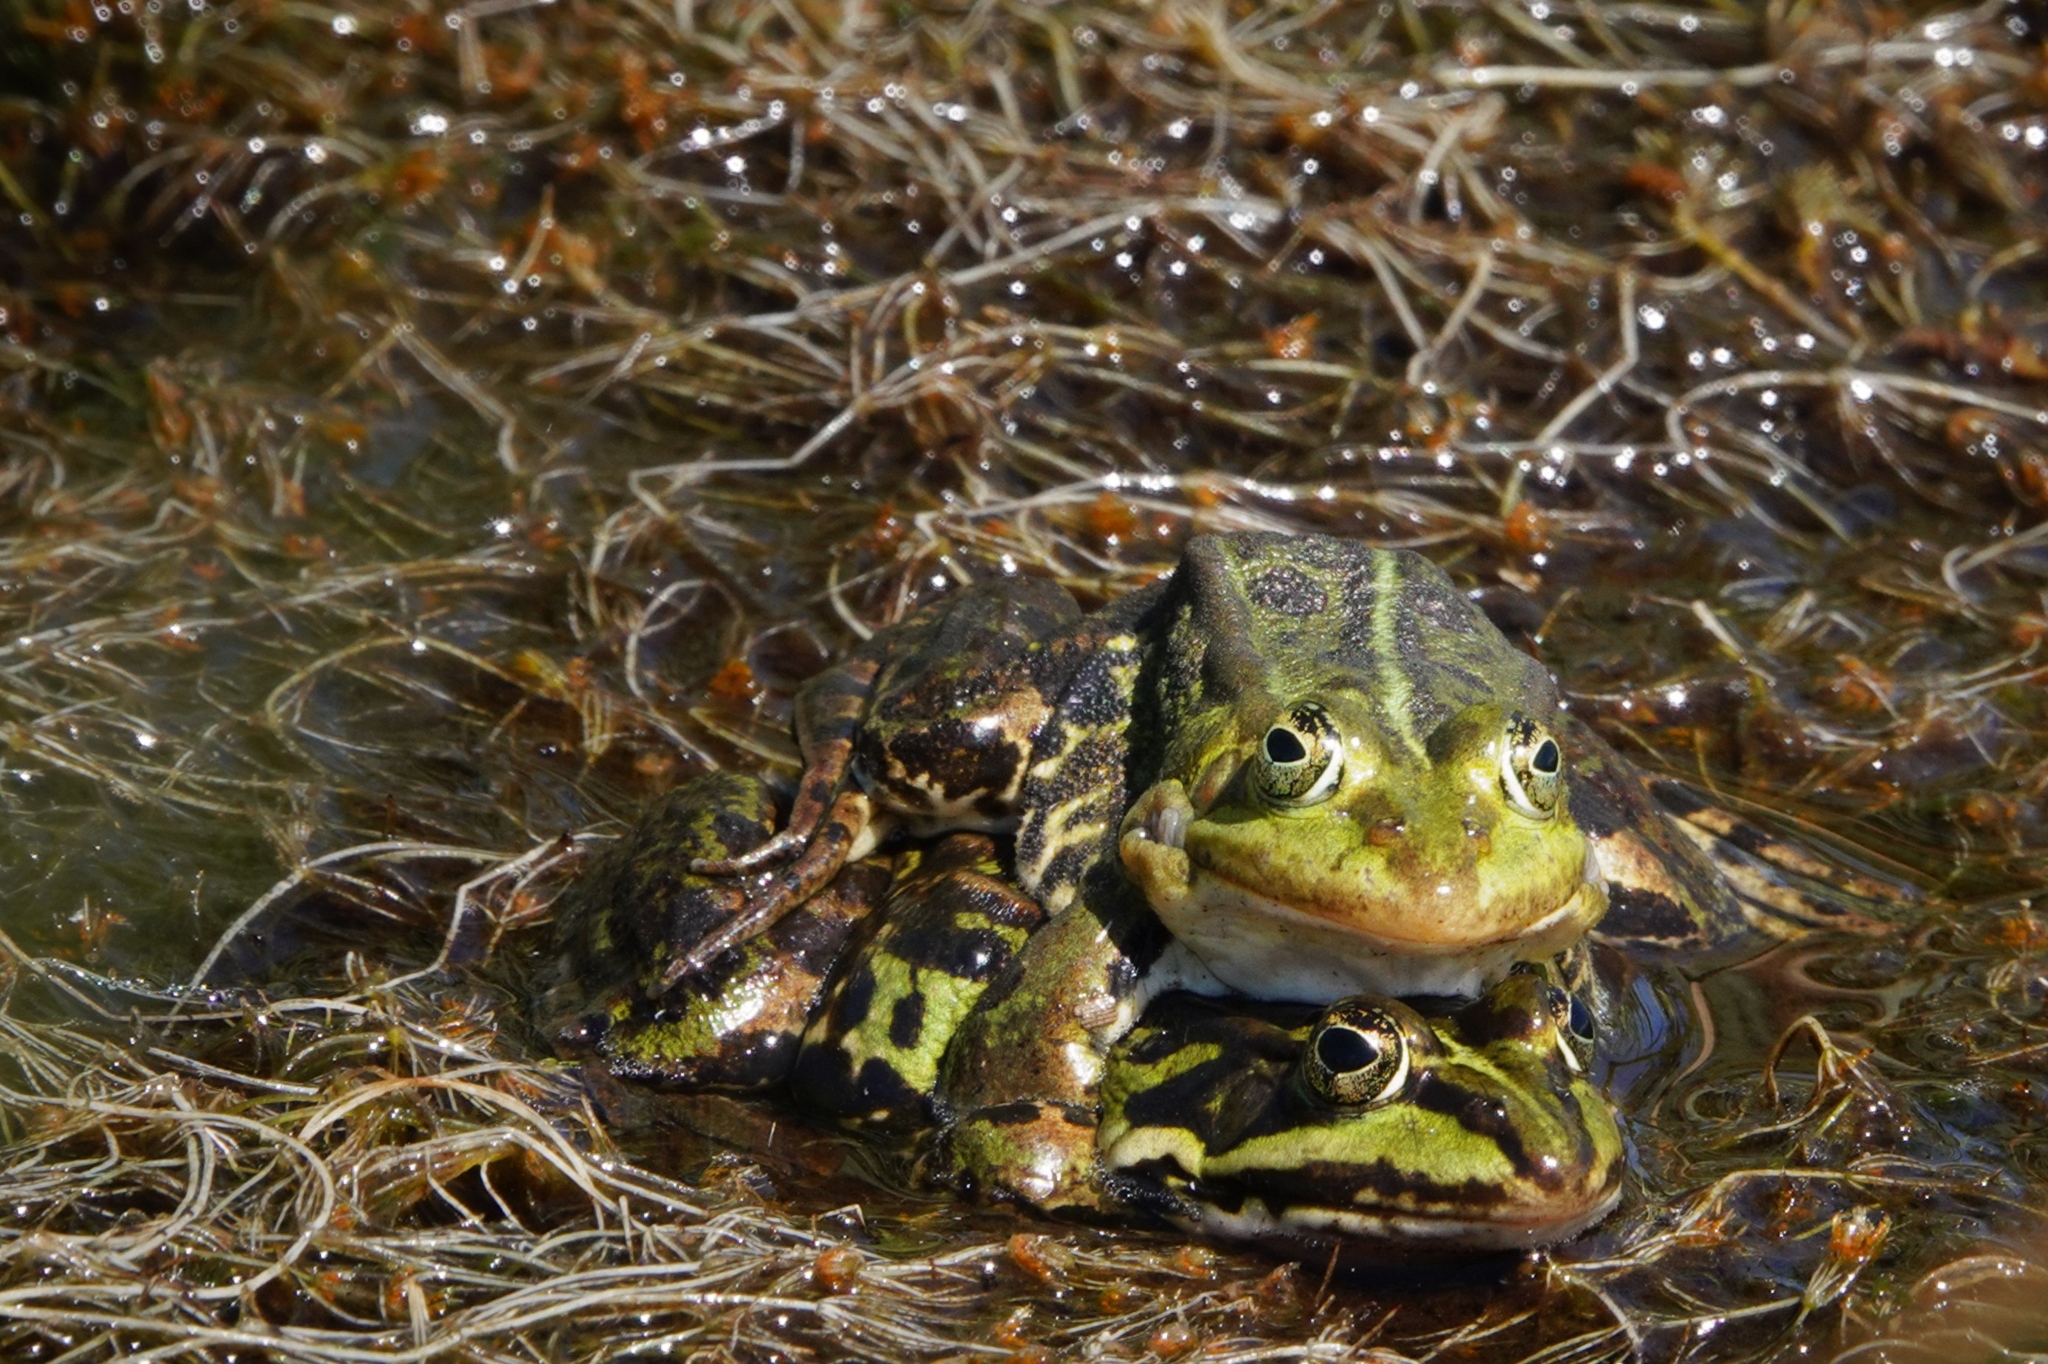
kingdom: Animalia
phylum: Chordata
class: Amphibia
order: Anura
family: Ranidae
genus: Pelophylax
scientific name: Pelophylax lessonae
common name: Pool frog
